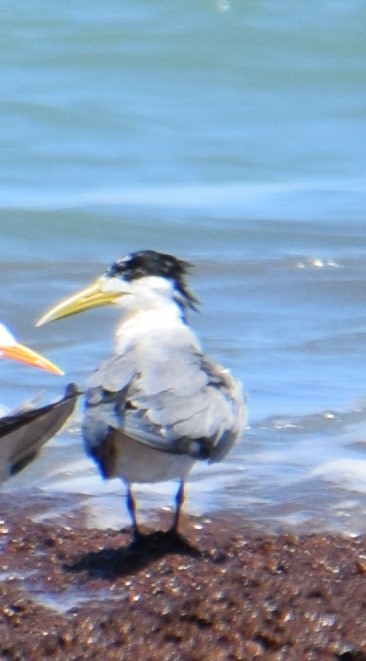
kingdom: Animalia
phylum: Chordata
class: Aves
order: Charadriiformes
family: Laridae
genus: Thalasseus
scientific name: Thalasseus bergii
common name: Greater crested tern
